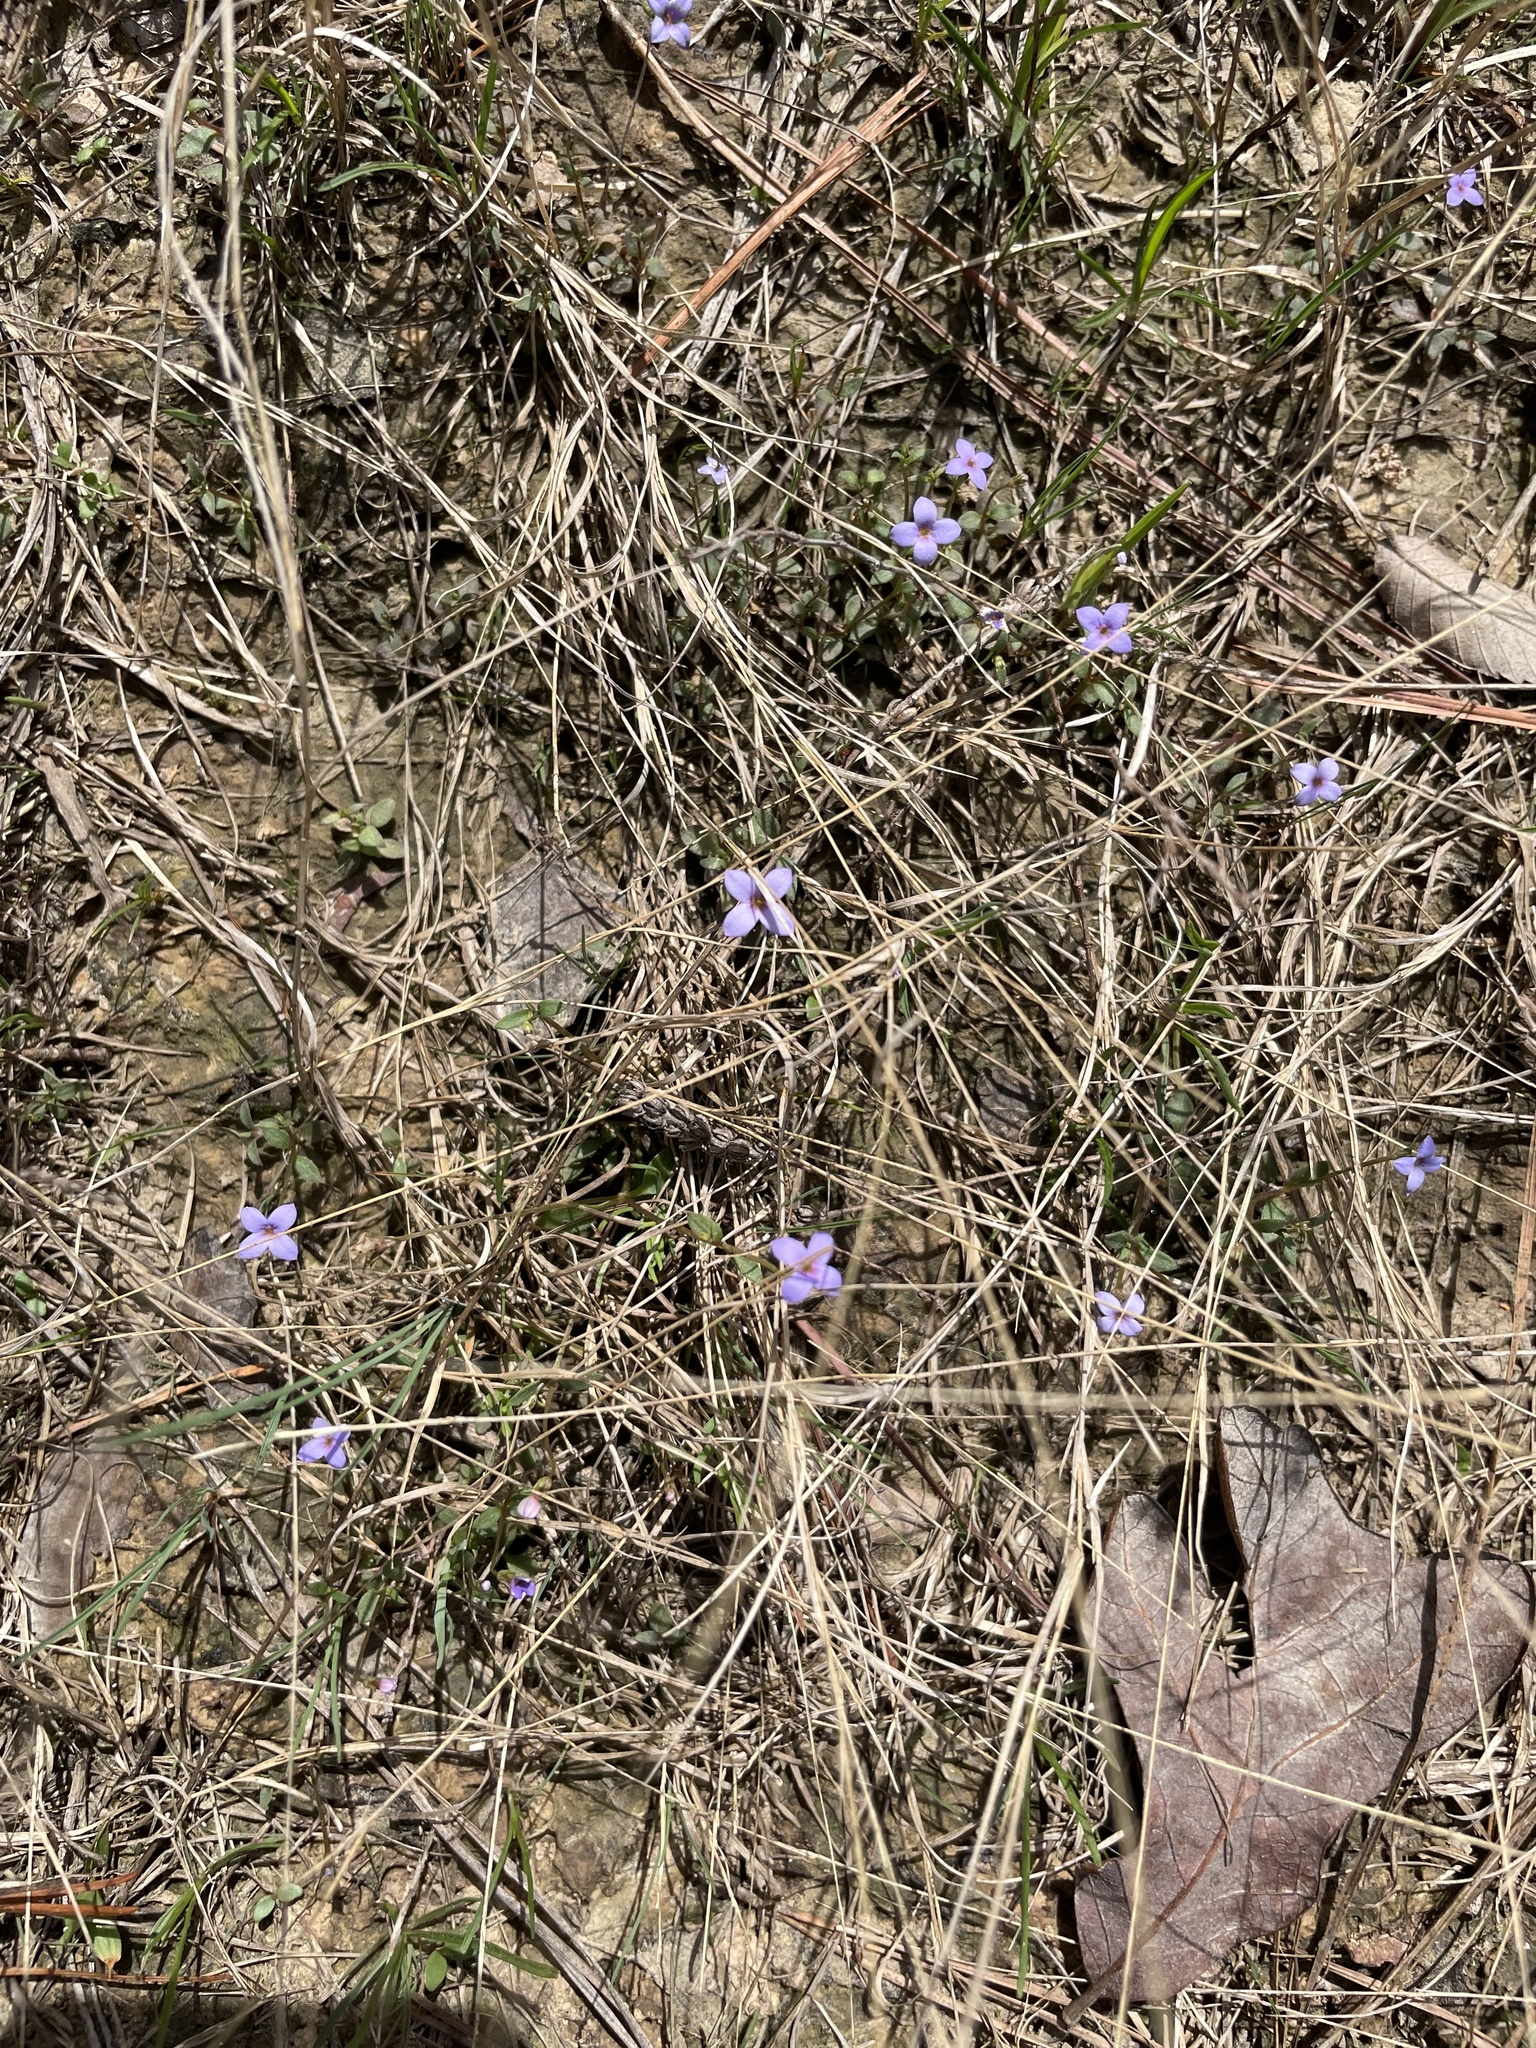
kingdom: Plantae
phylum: Tracheophyta
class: Magnoliopsida
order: Gentianales
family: Rubiaceae
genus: Houstonia
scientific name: Houstonia pusilla
